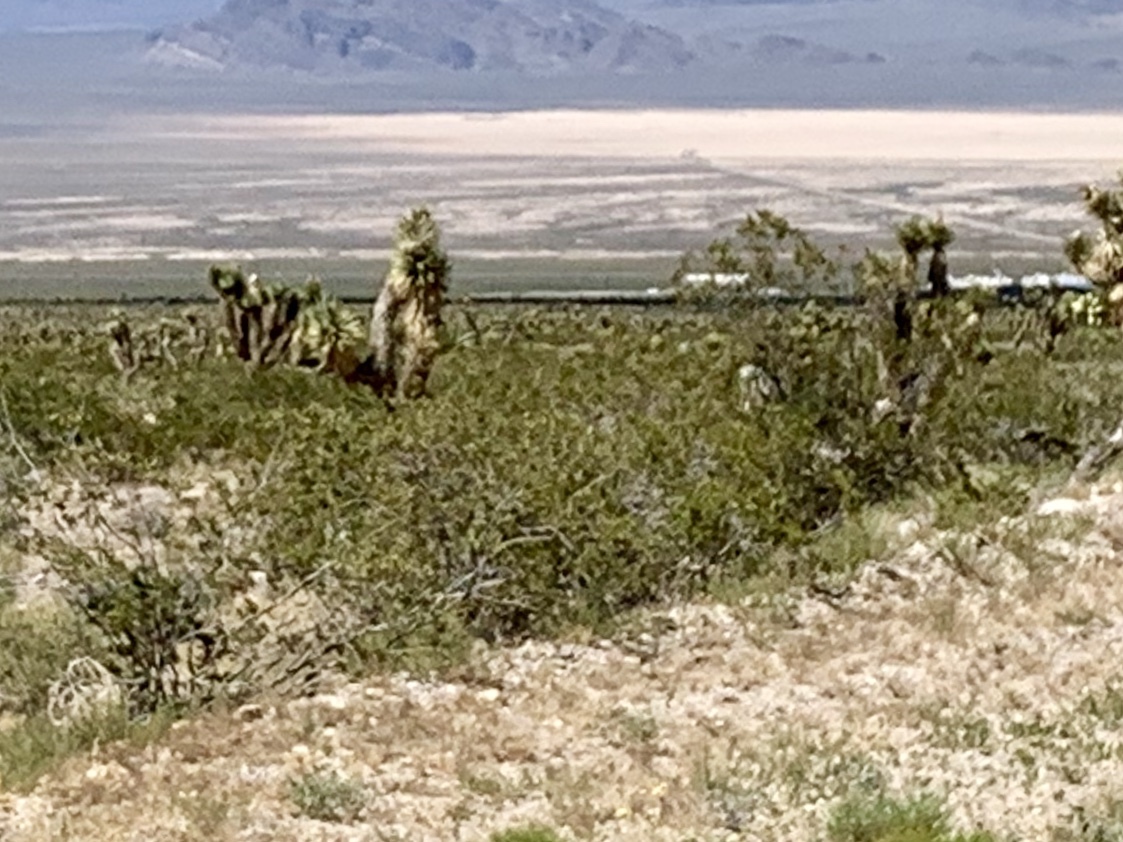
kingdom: Plantae
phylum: Tracheophyta
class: Magnoliopsida
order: Zygophyllales
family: Zygophyllaceae
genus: Larrea
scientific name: Larrea tridentata
